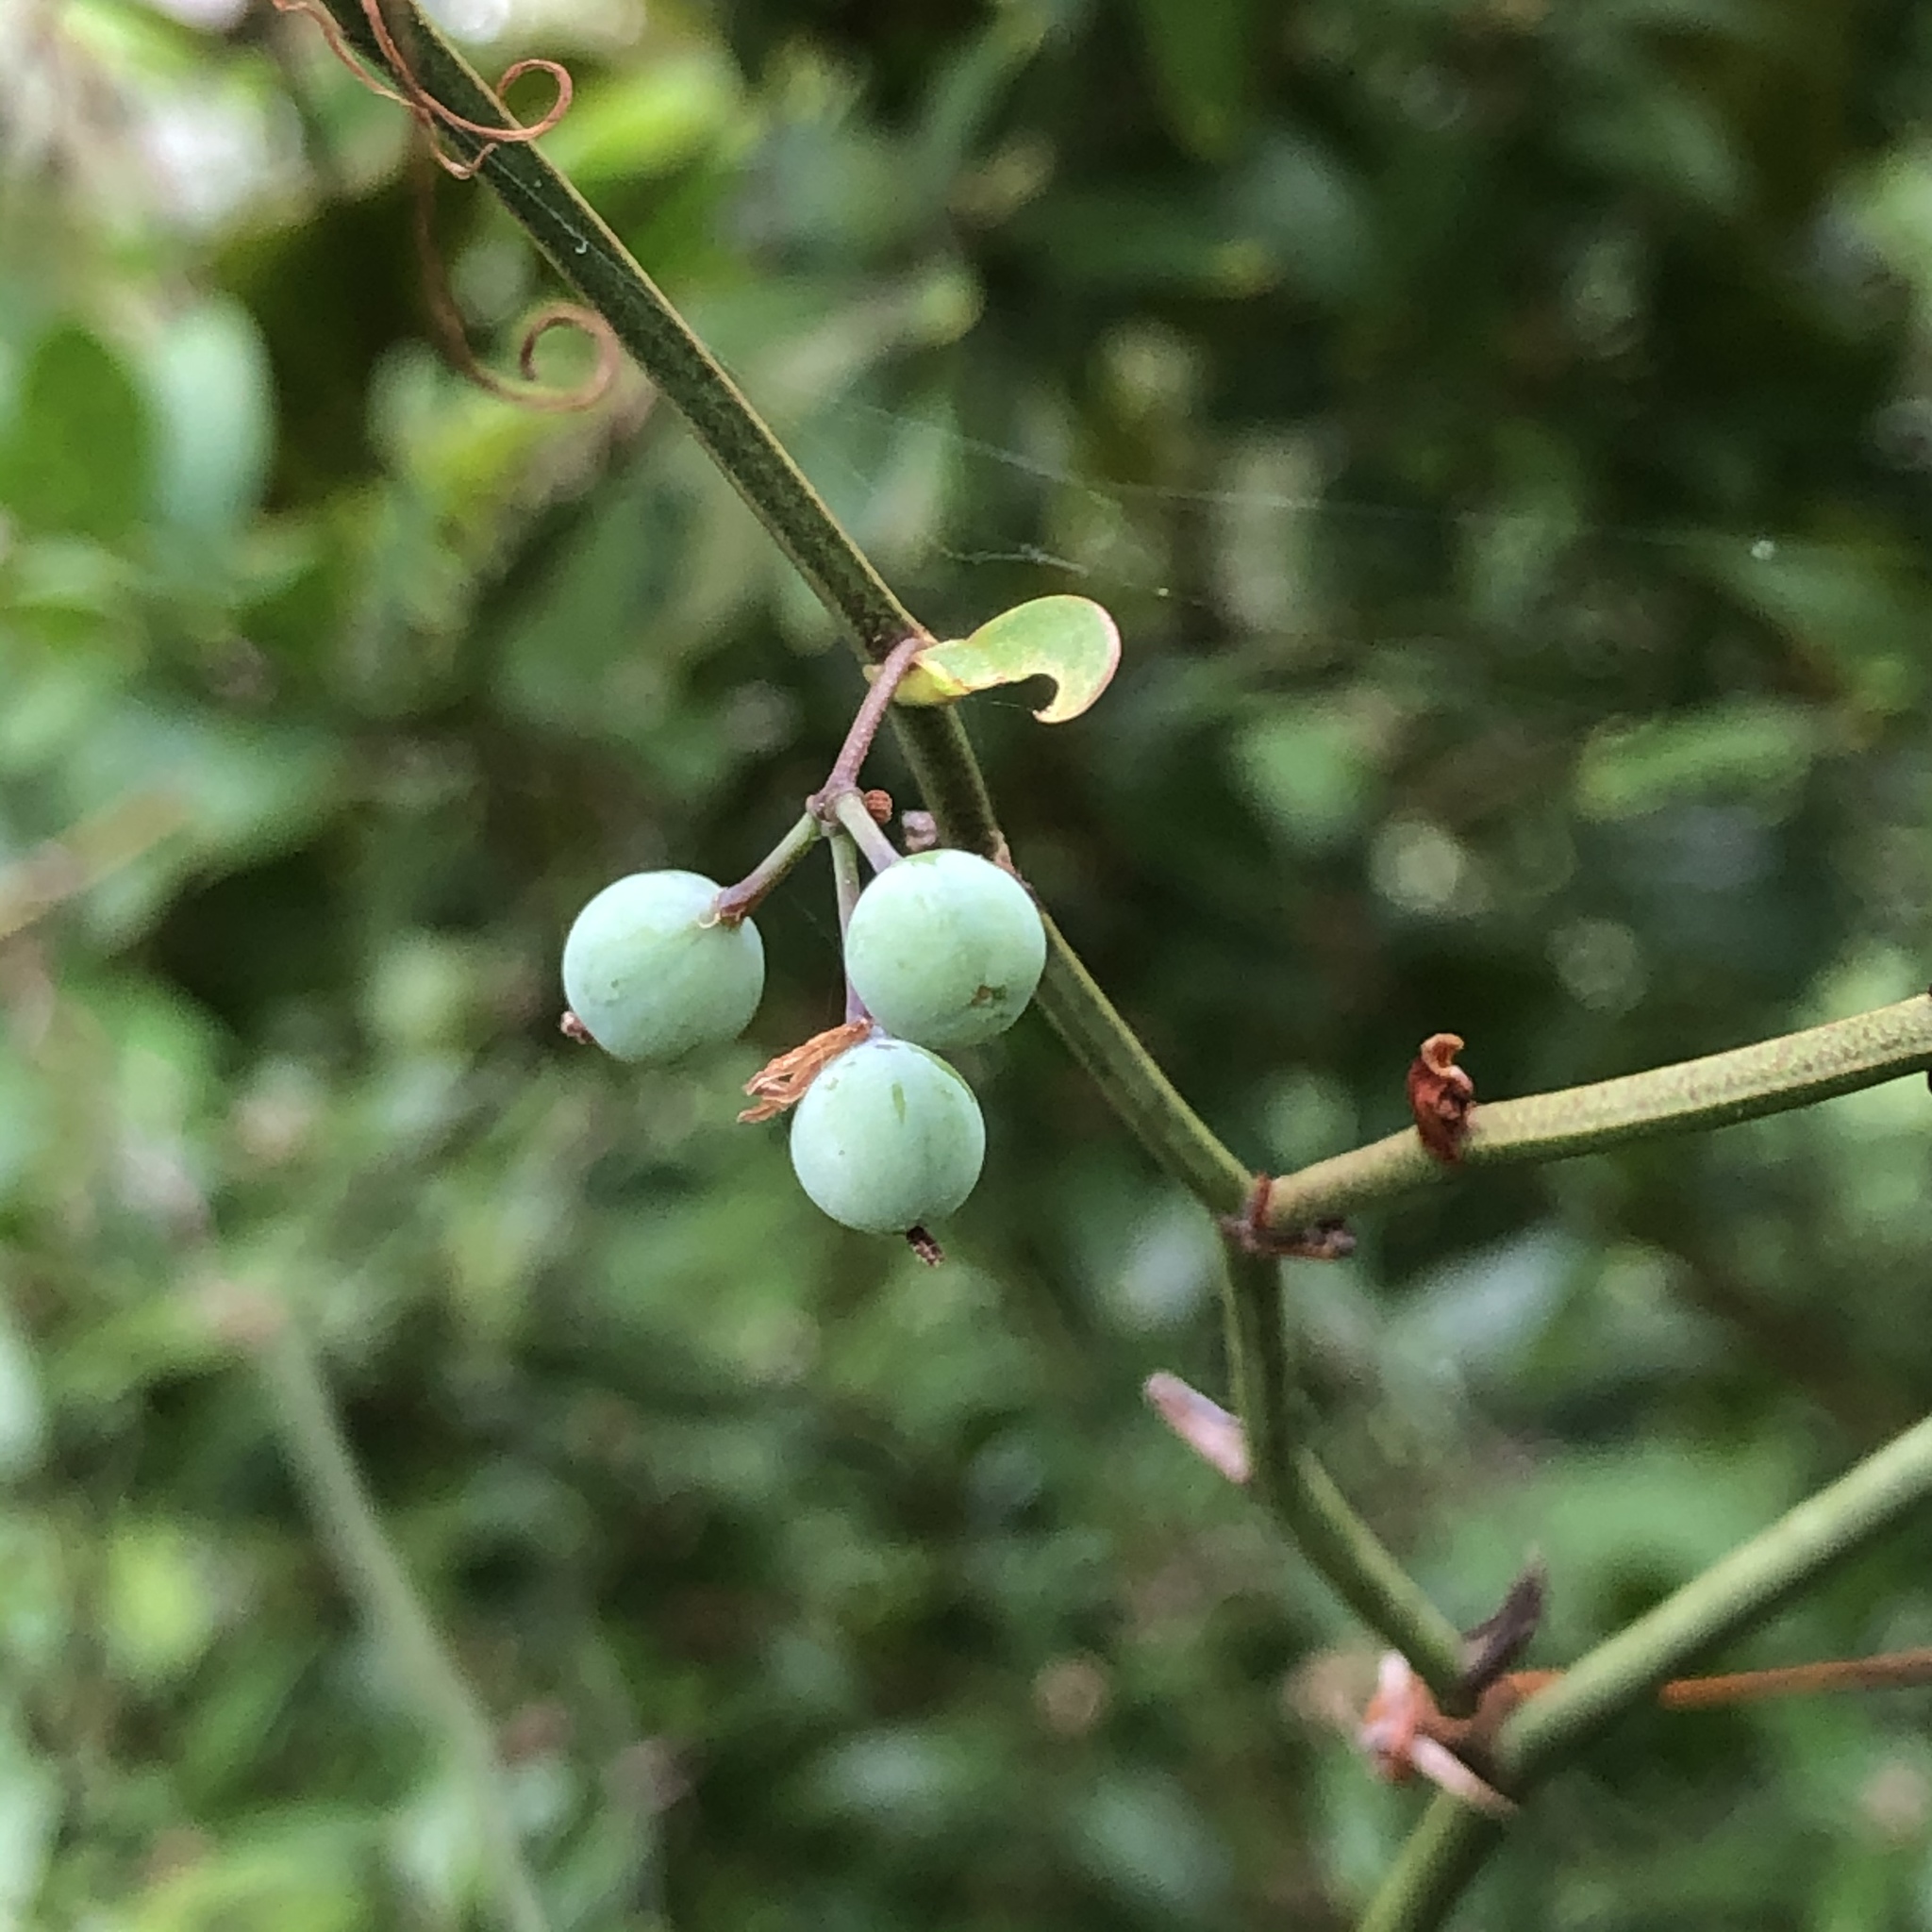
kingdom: Plantae
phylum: Tracheophyta
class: Liliopsida
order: Liliales
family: Smilacaceae
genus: Smilax
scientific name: Smilax rotundifolia
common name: Bullbriar
